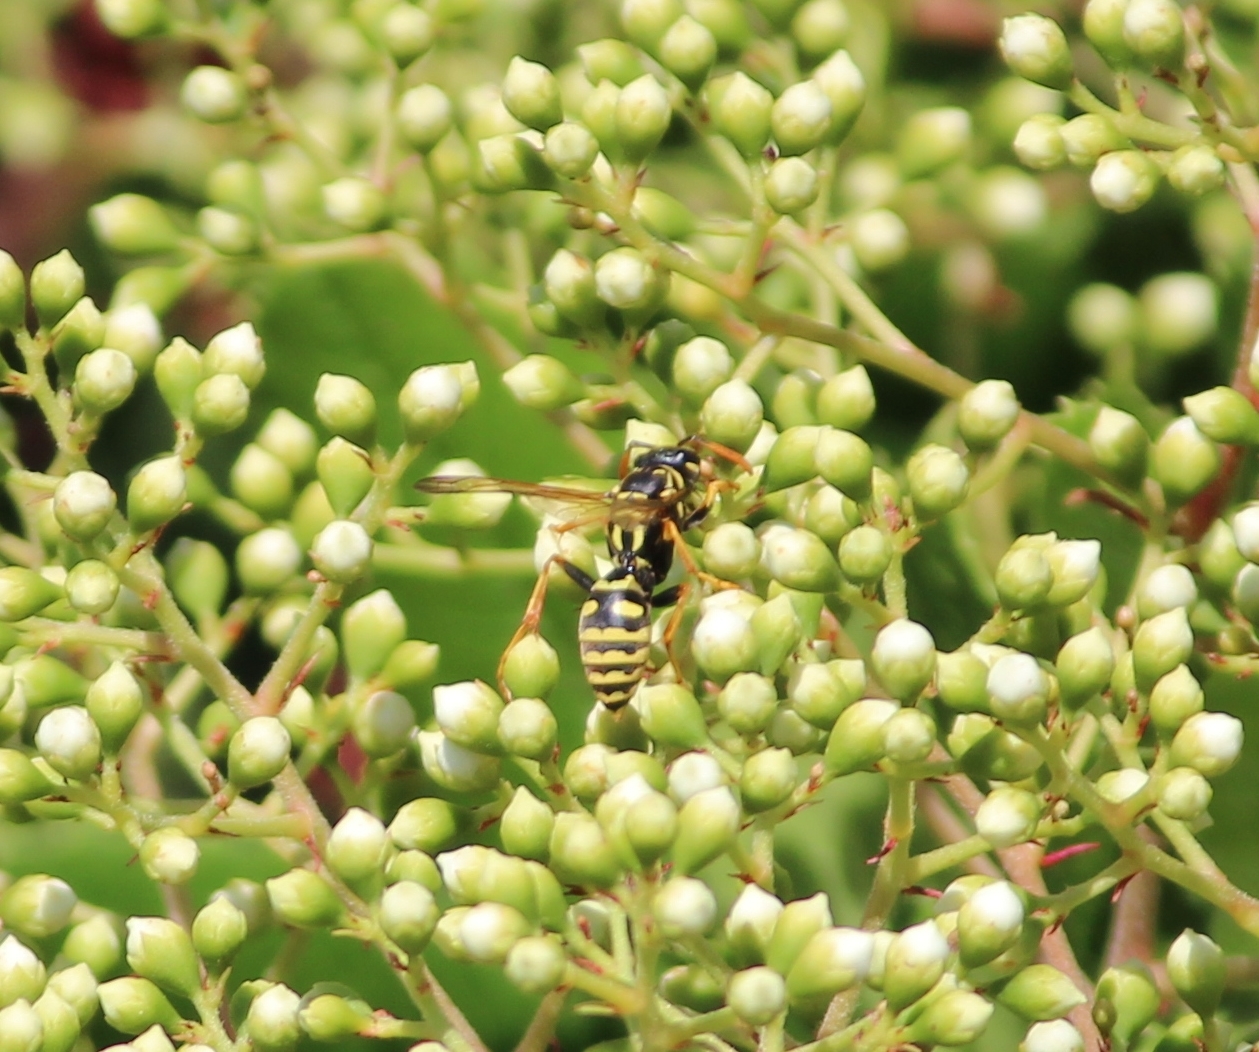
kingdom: Animalia
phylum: Arthropoda
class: Insecta
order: Hymenoptera
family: Eumenidae
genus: Polistes
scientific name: Polistes dominula
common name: Paper wasp
